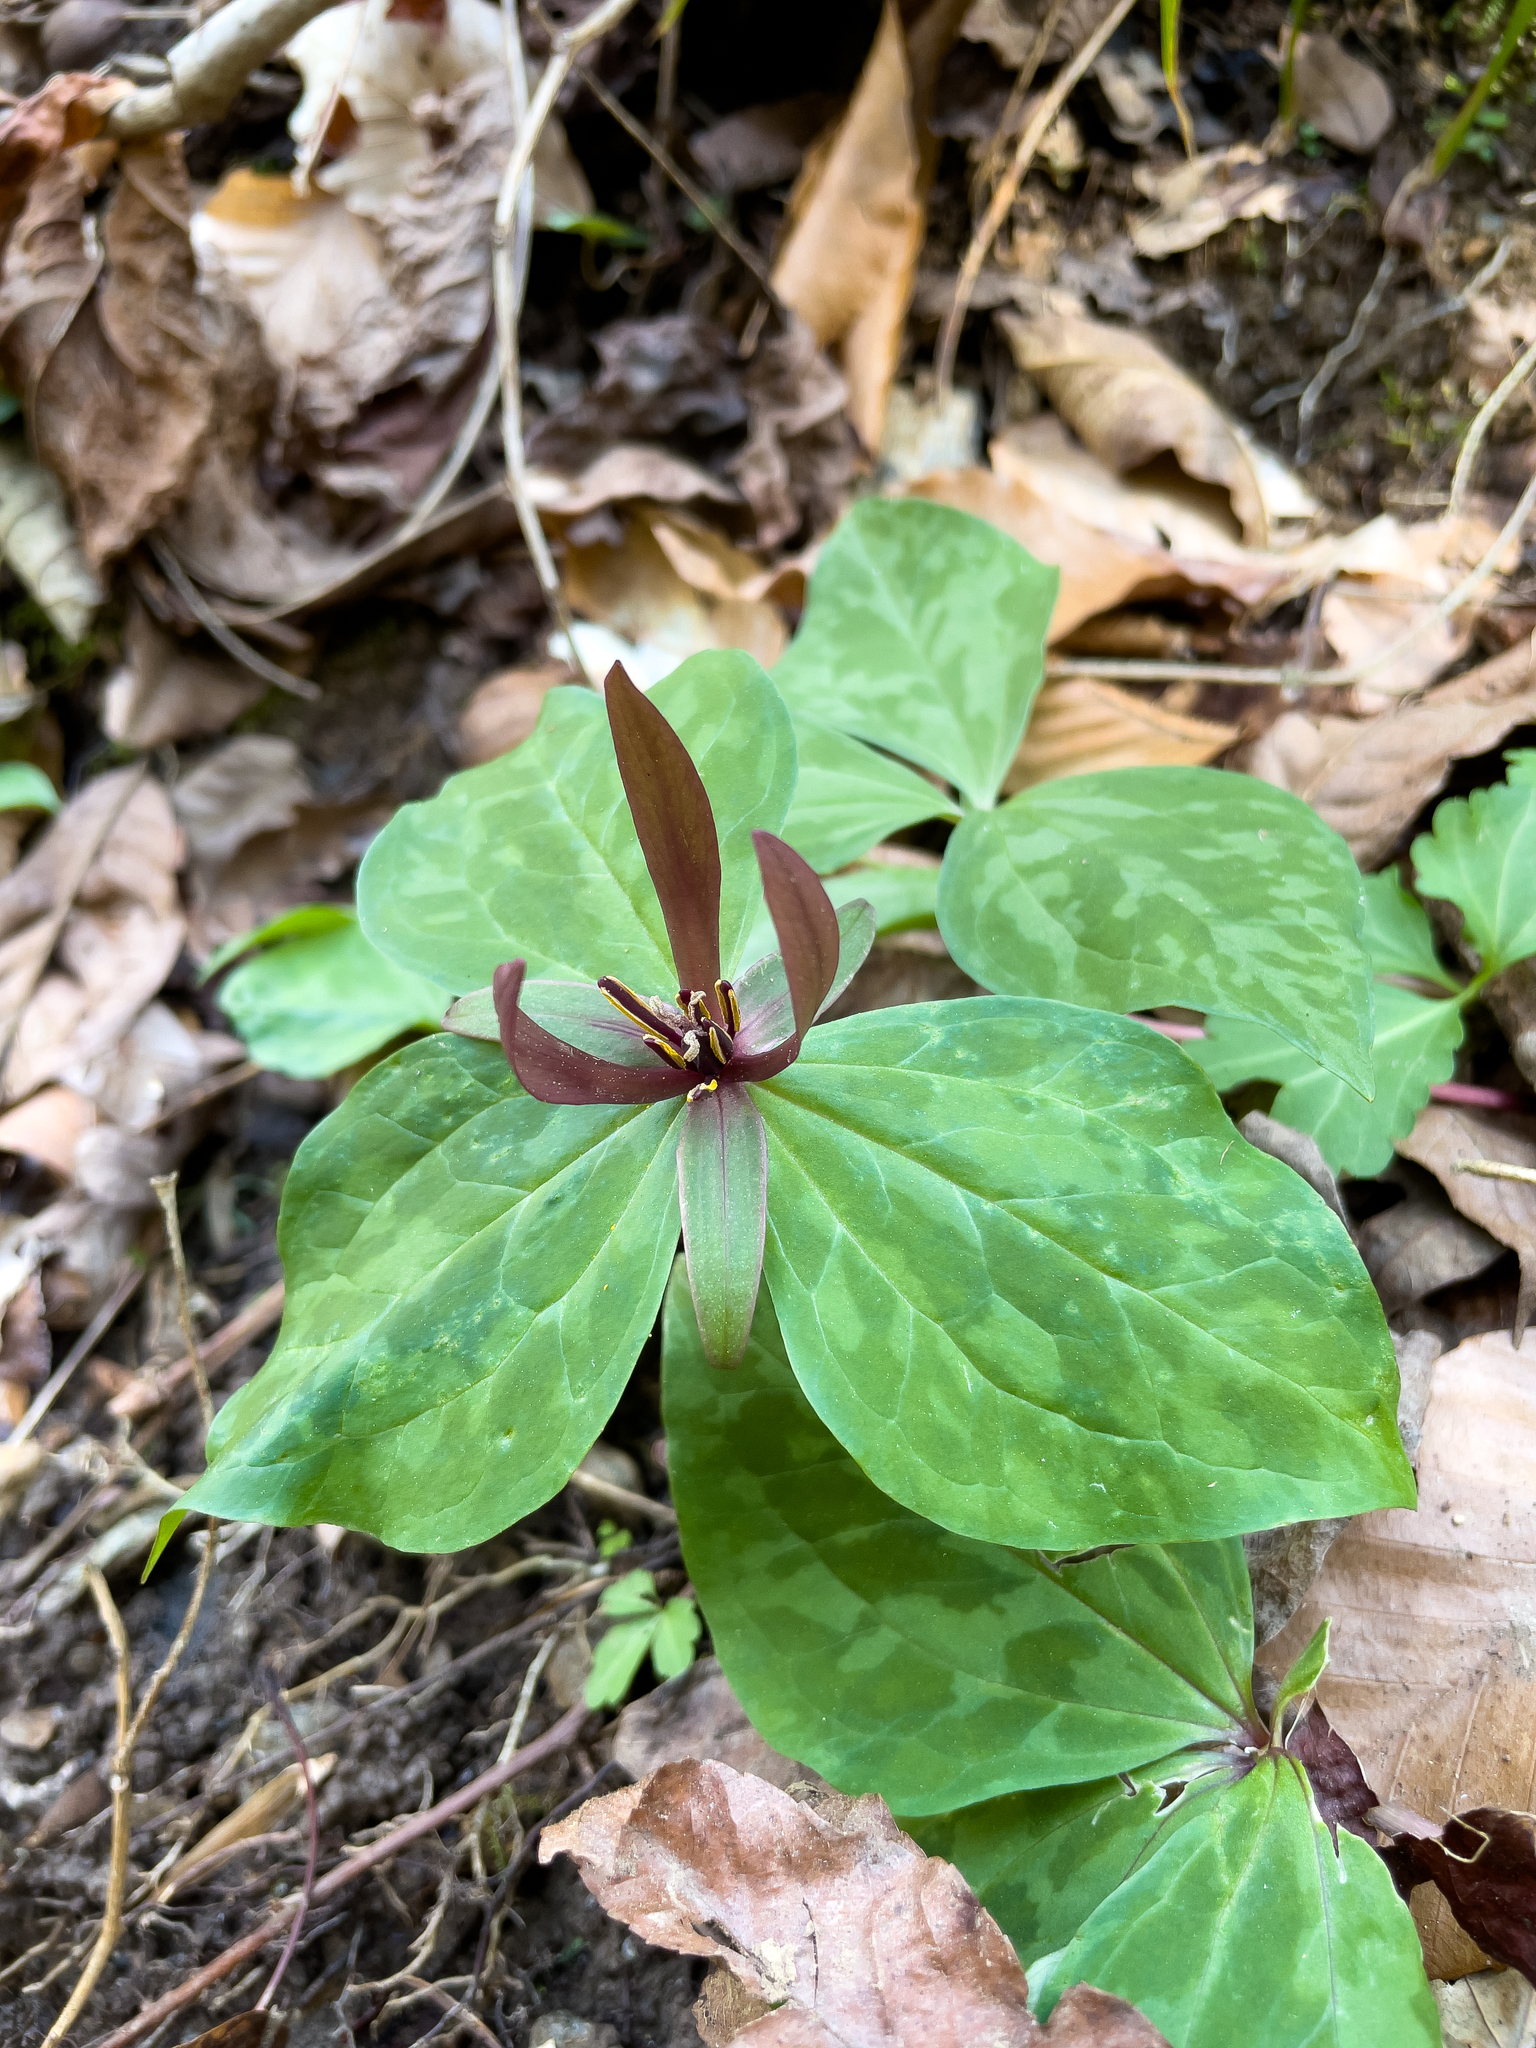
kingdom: Plantae
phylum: Tracheophyta
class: Liliopsida
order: Liliales
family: Melanthiaceae
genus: Trillium
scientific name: Trillium cuneatum
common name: Cuneate trillium
